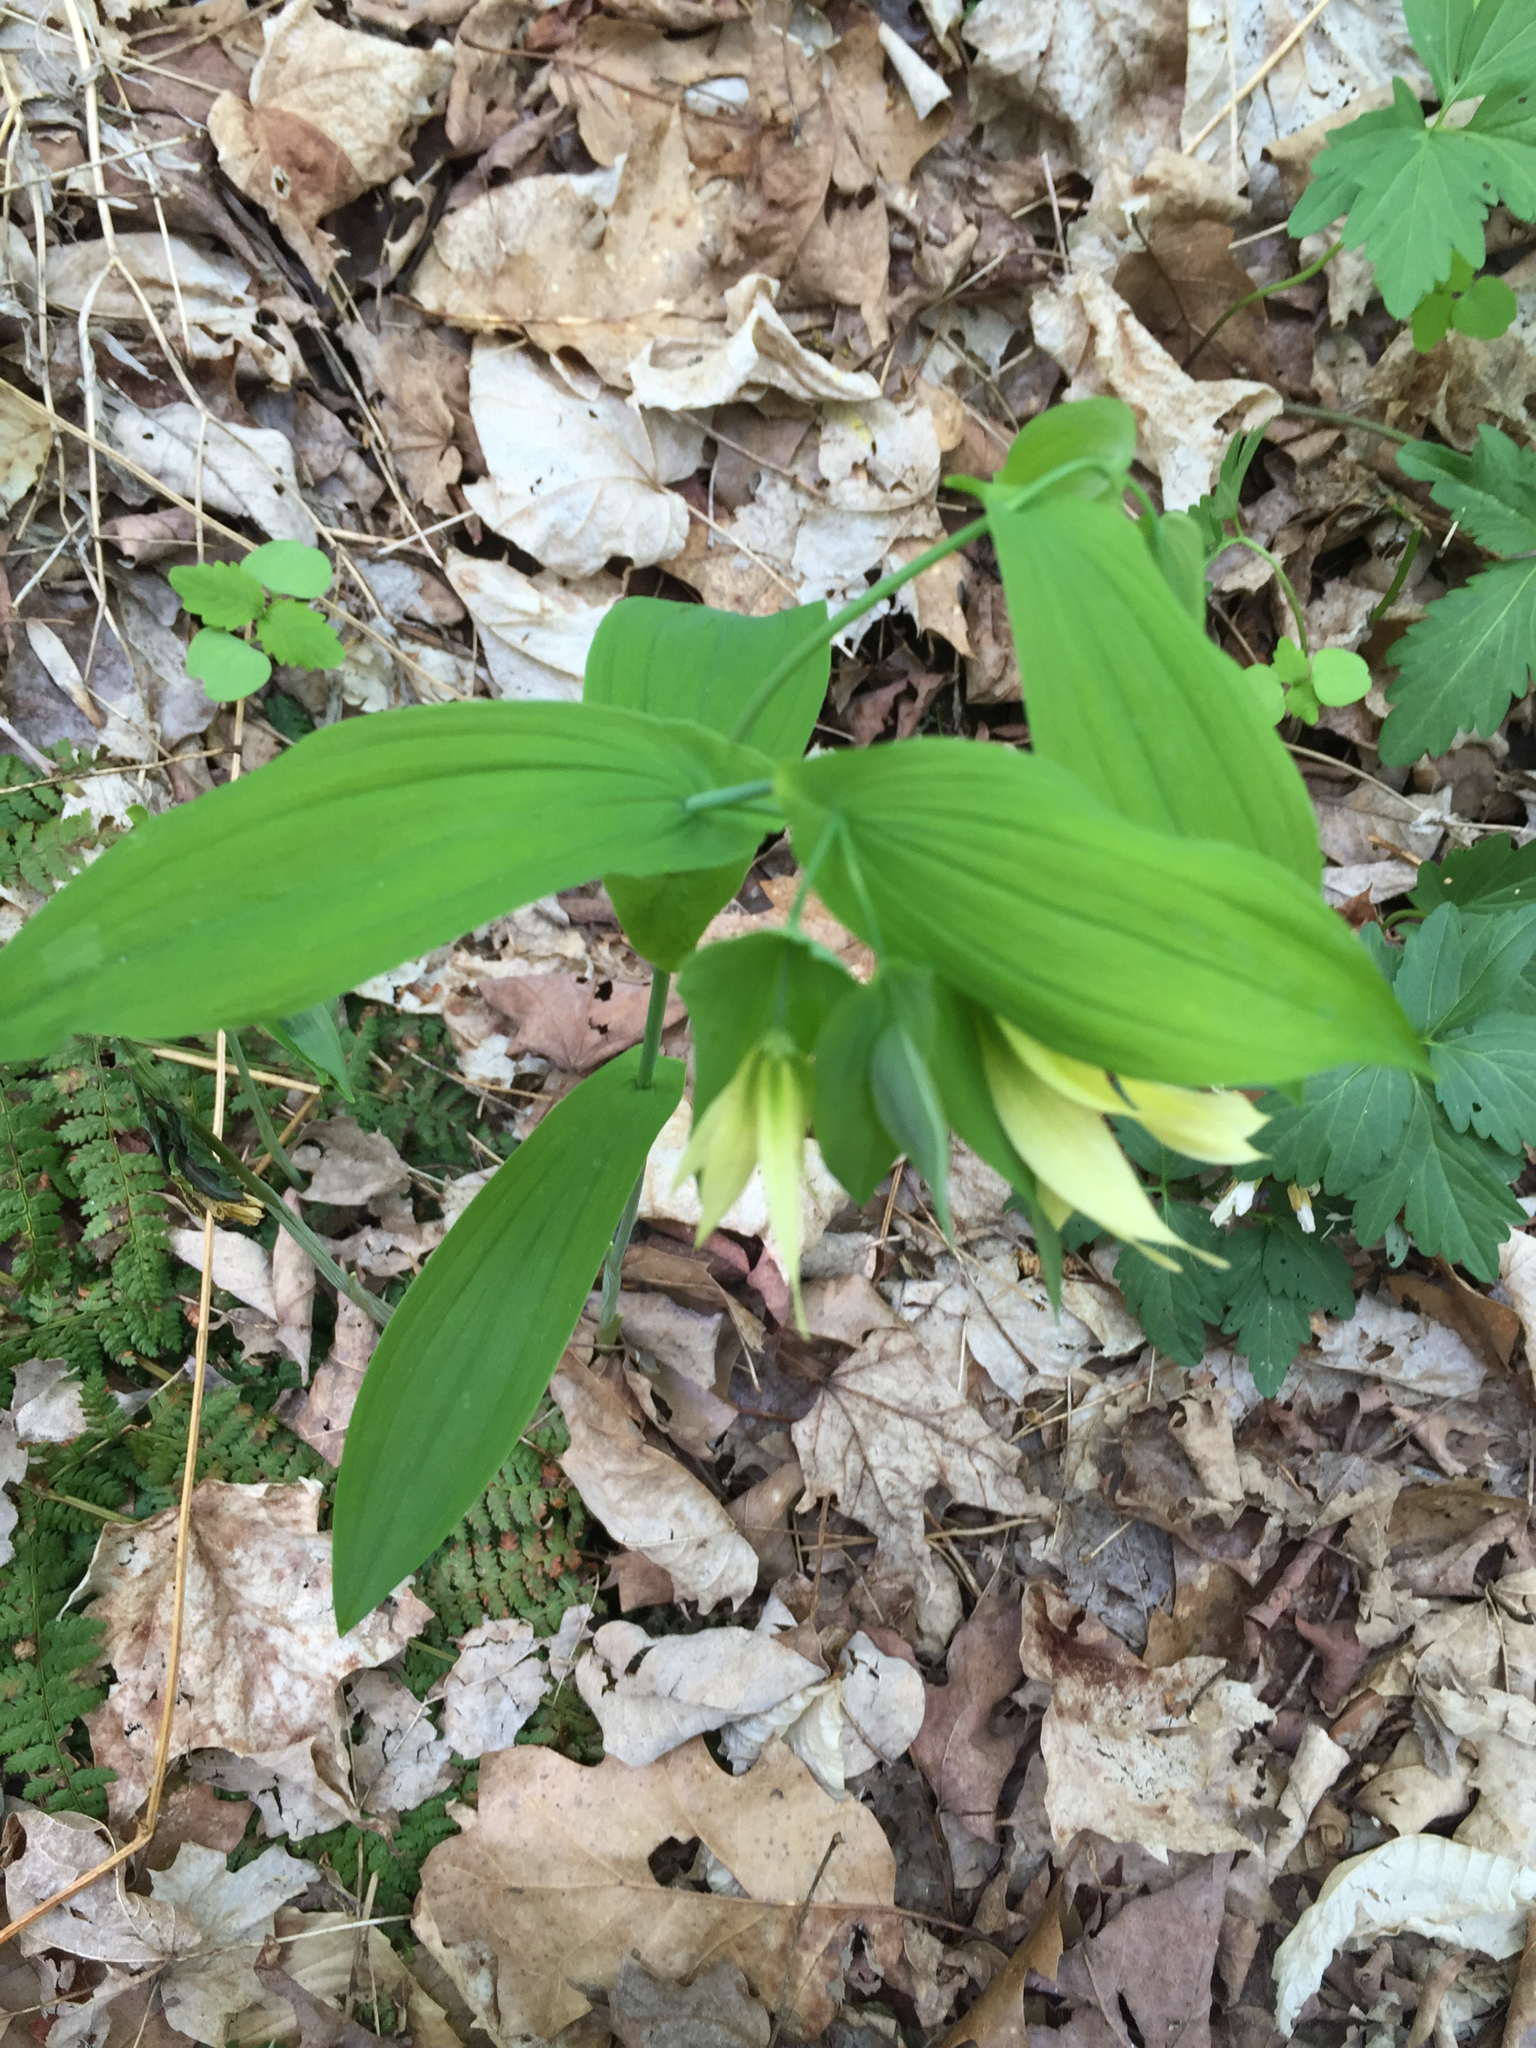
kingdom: Plantae
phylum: Tracheophyta
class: Liliopsida
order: Liliales
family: Colchicaceae
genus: Uvularia
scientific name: Uvularia grandiflora
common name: Bellwort
